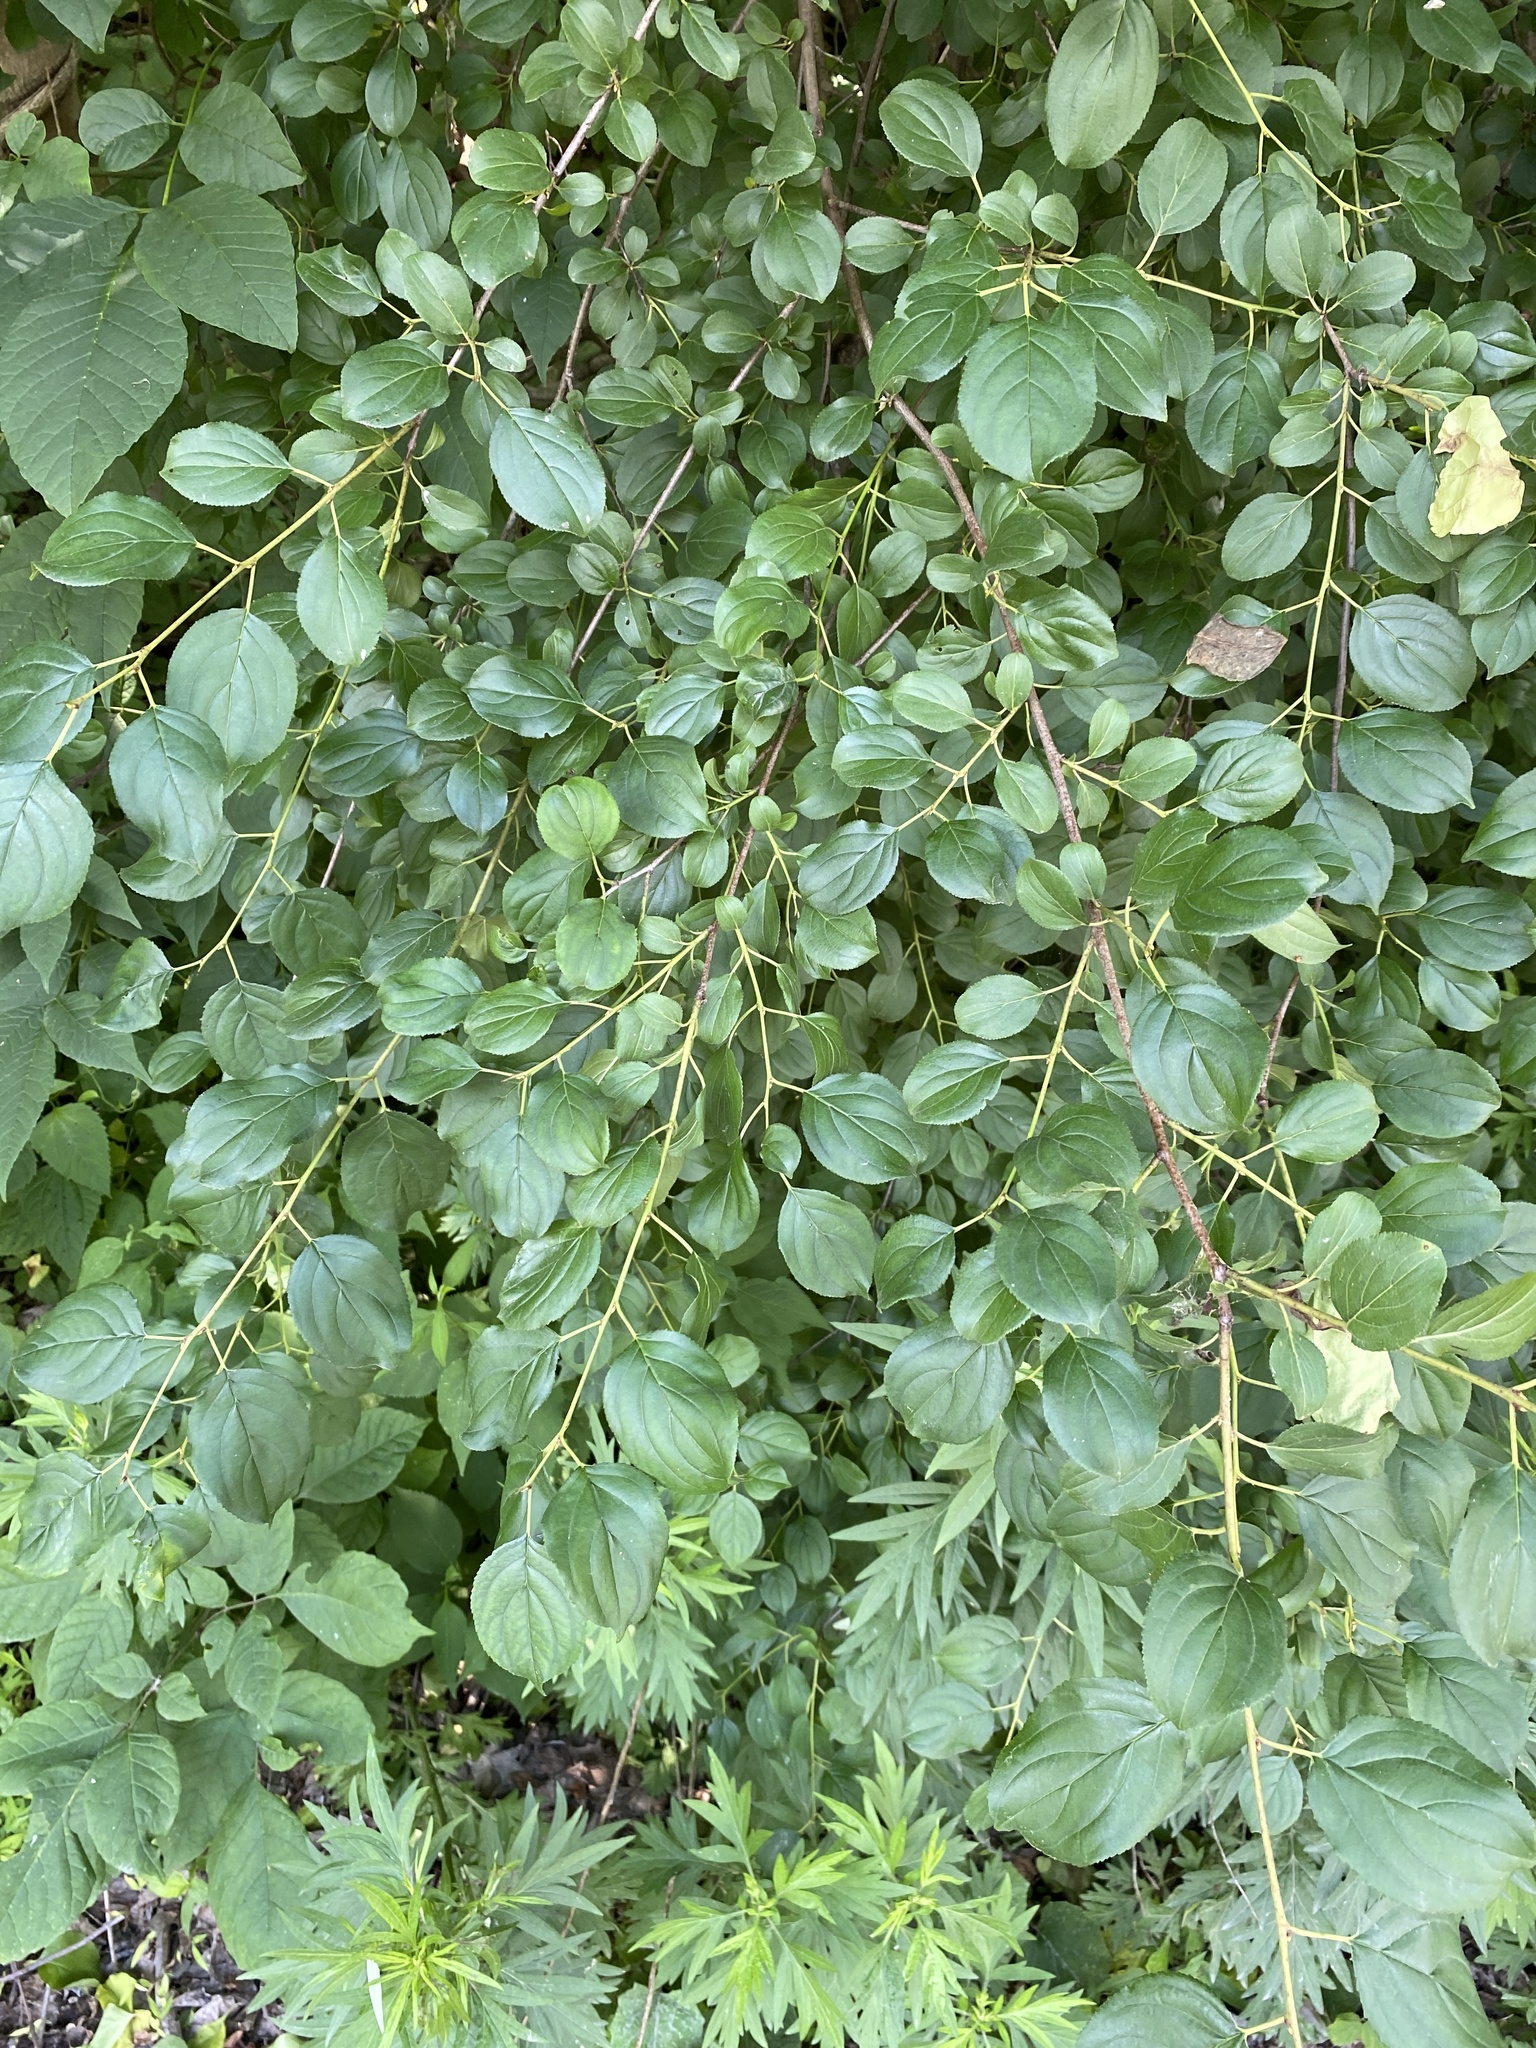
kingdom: Plantae
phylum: Tracheophyta
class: Magnoliopsida
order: Rosales
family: Rhamnaceae
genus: Rhamnus
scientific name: Rhamnus cathartica
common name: Common buckthorn
